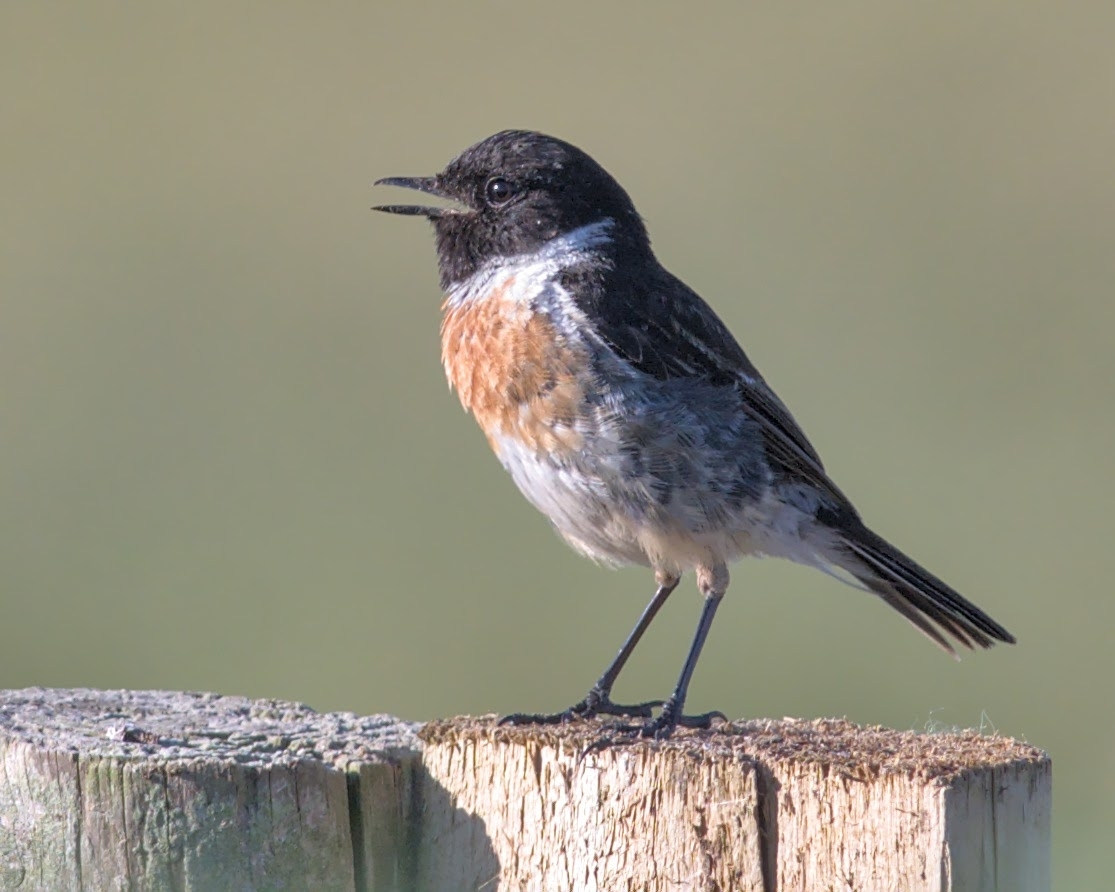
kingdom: Animalia
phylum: Chordata
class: Aves
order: Passeriformes
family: Muscicapidae
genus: Saxicola
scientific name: Saxicola rubicola
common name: European stonechat
